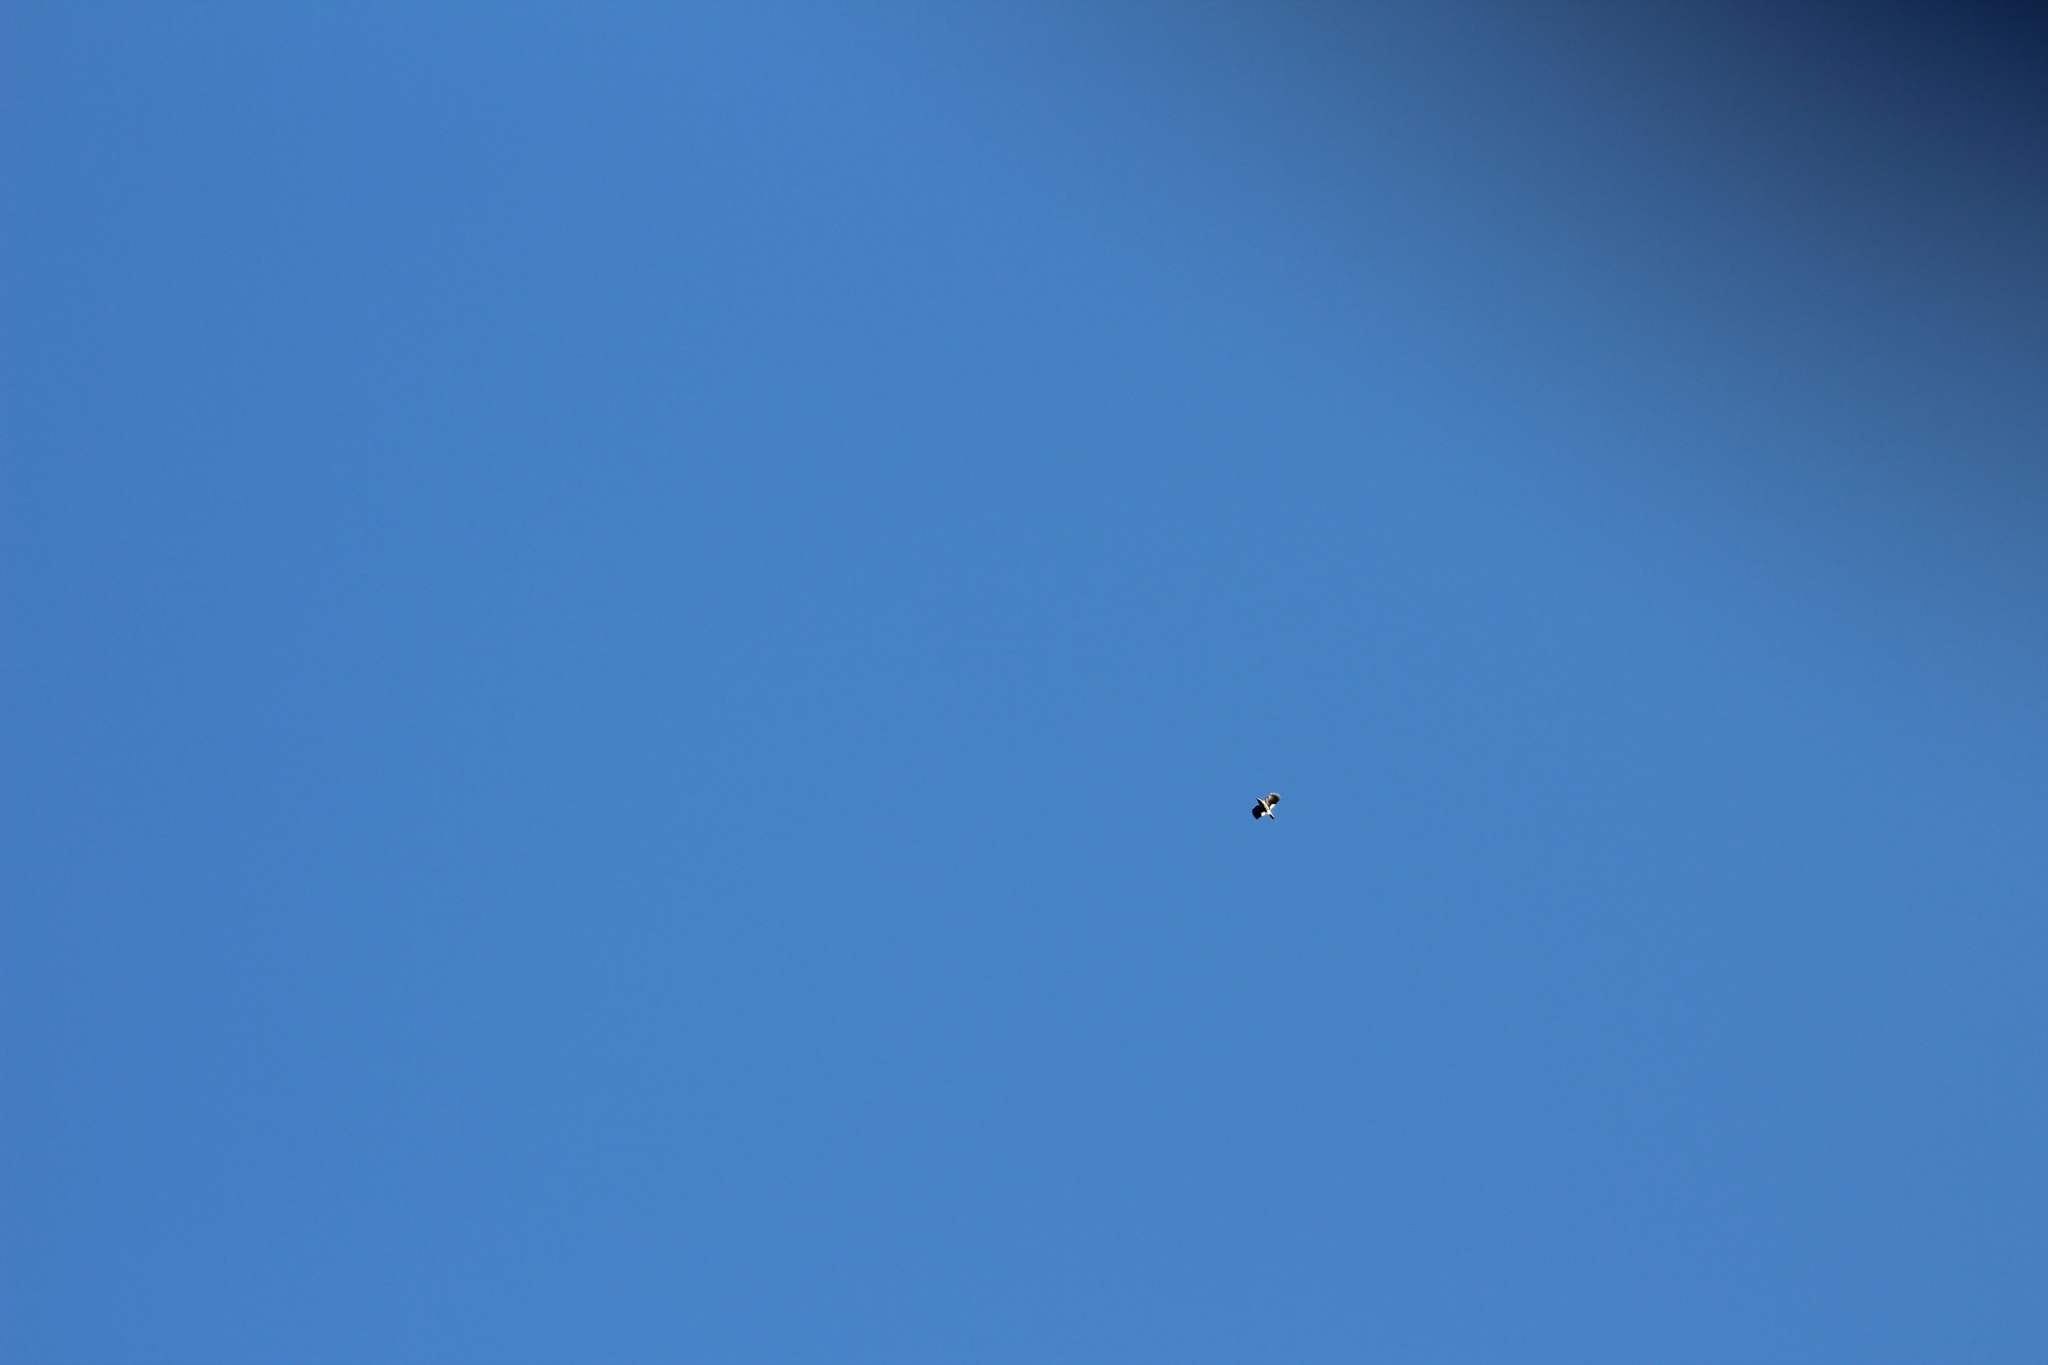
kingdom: Animalia
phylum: Chordata
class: Aves
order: Passeriformes
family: Corvidae
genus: Nucifraga
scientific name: Nucifraga columbiana
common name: Clark's nutcracker
